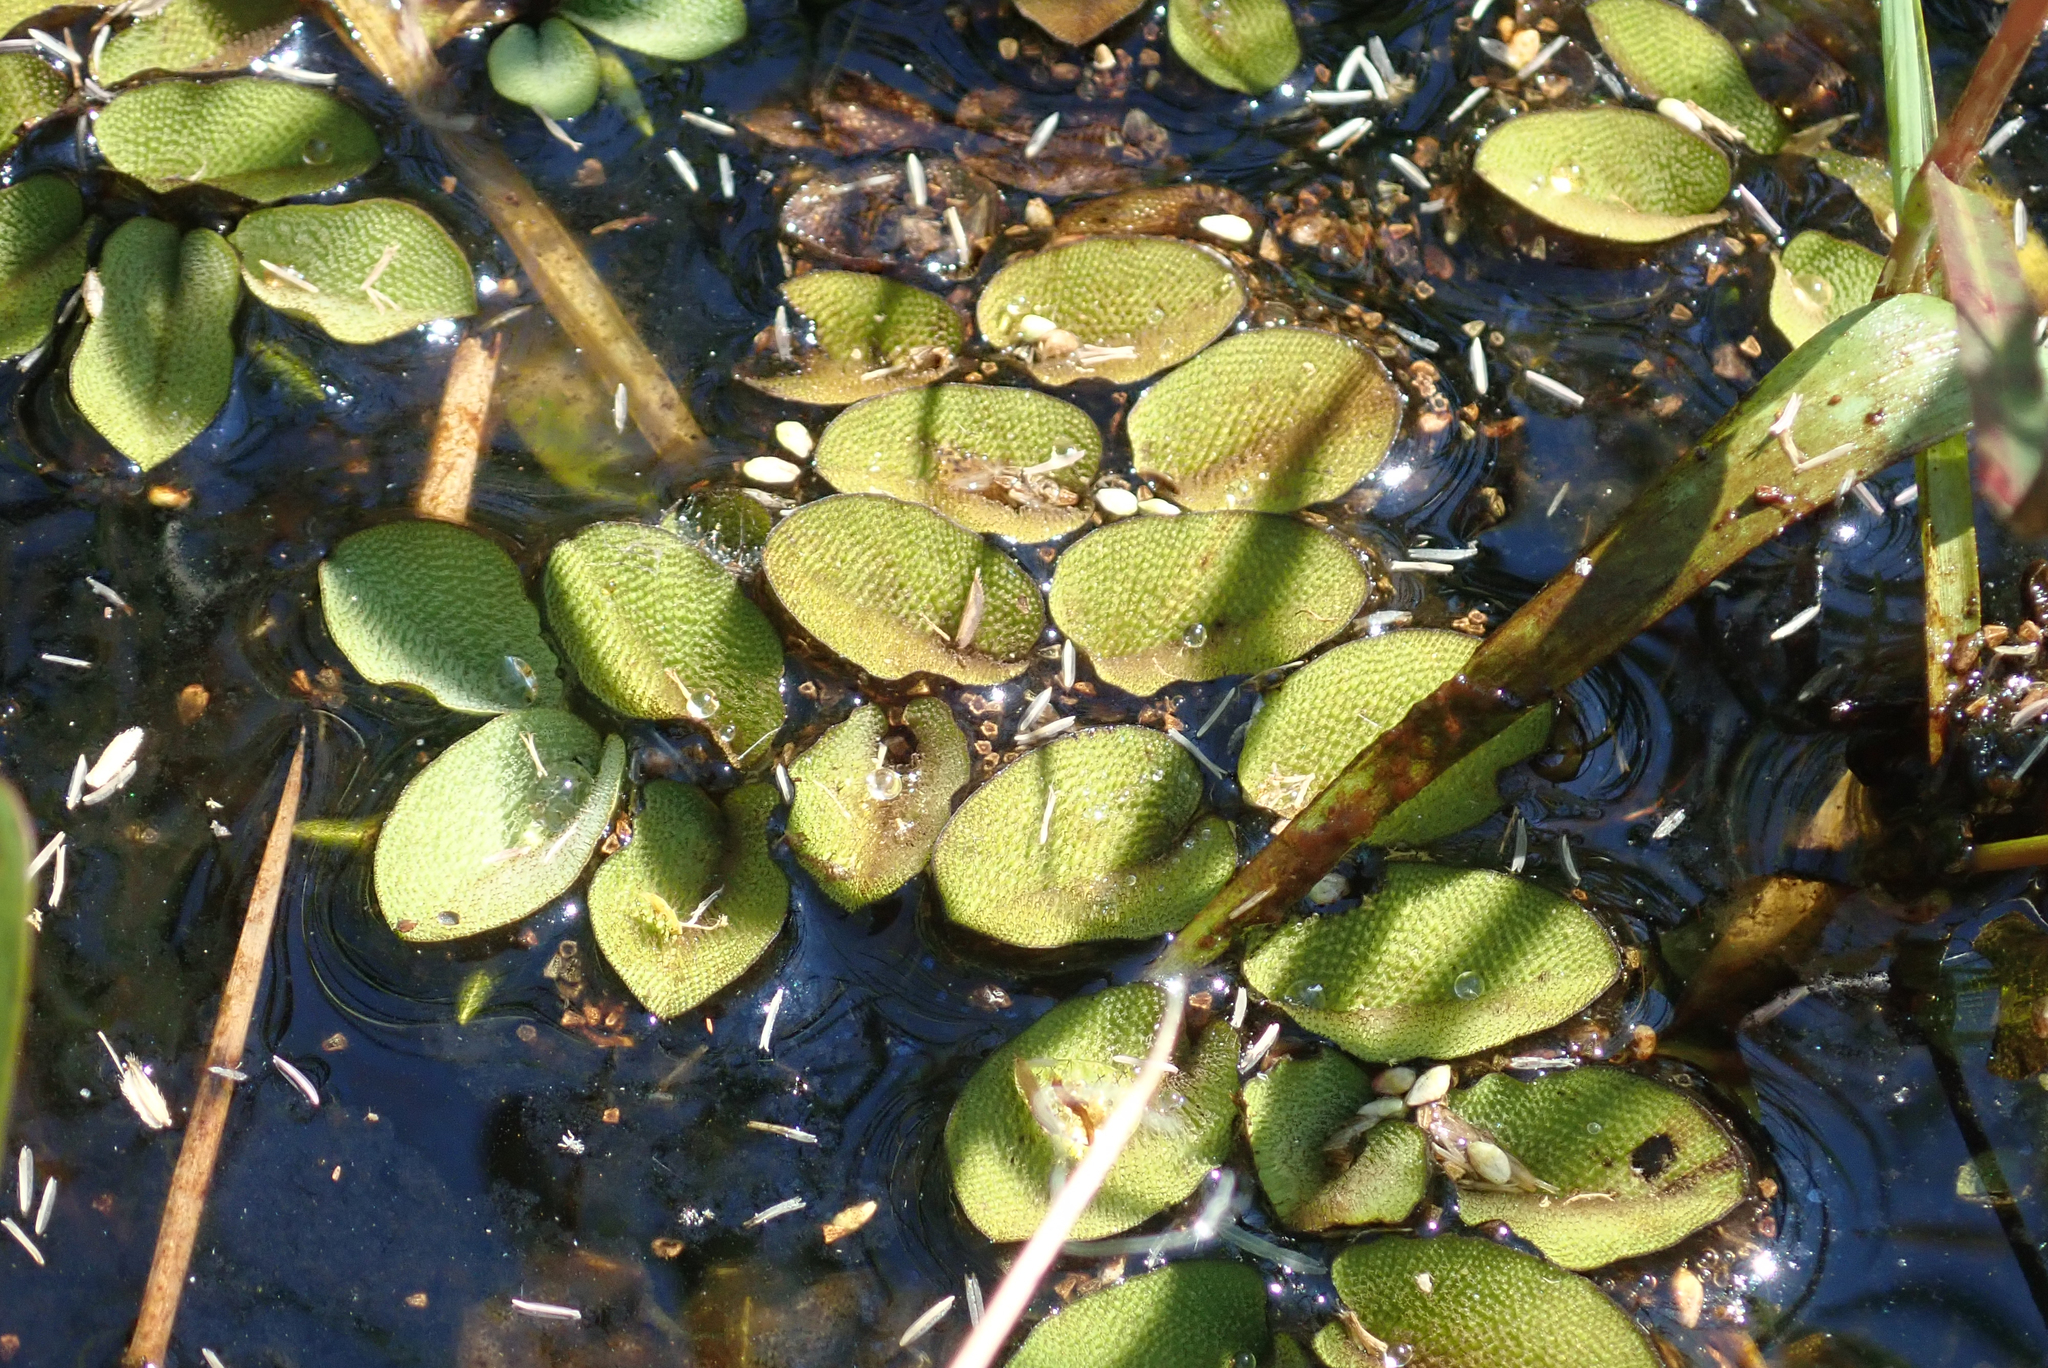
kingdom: Plantae
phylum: Tracheophyta
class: Polypodiopsida
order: Salviniales
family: Salviniaceae
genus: Salvinia
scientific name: Salvinia molesta
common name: Kariba weed
